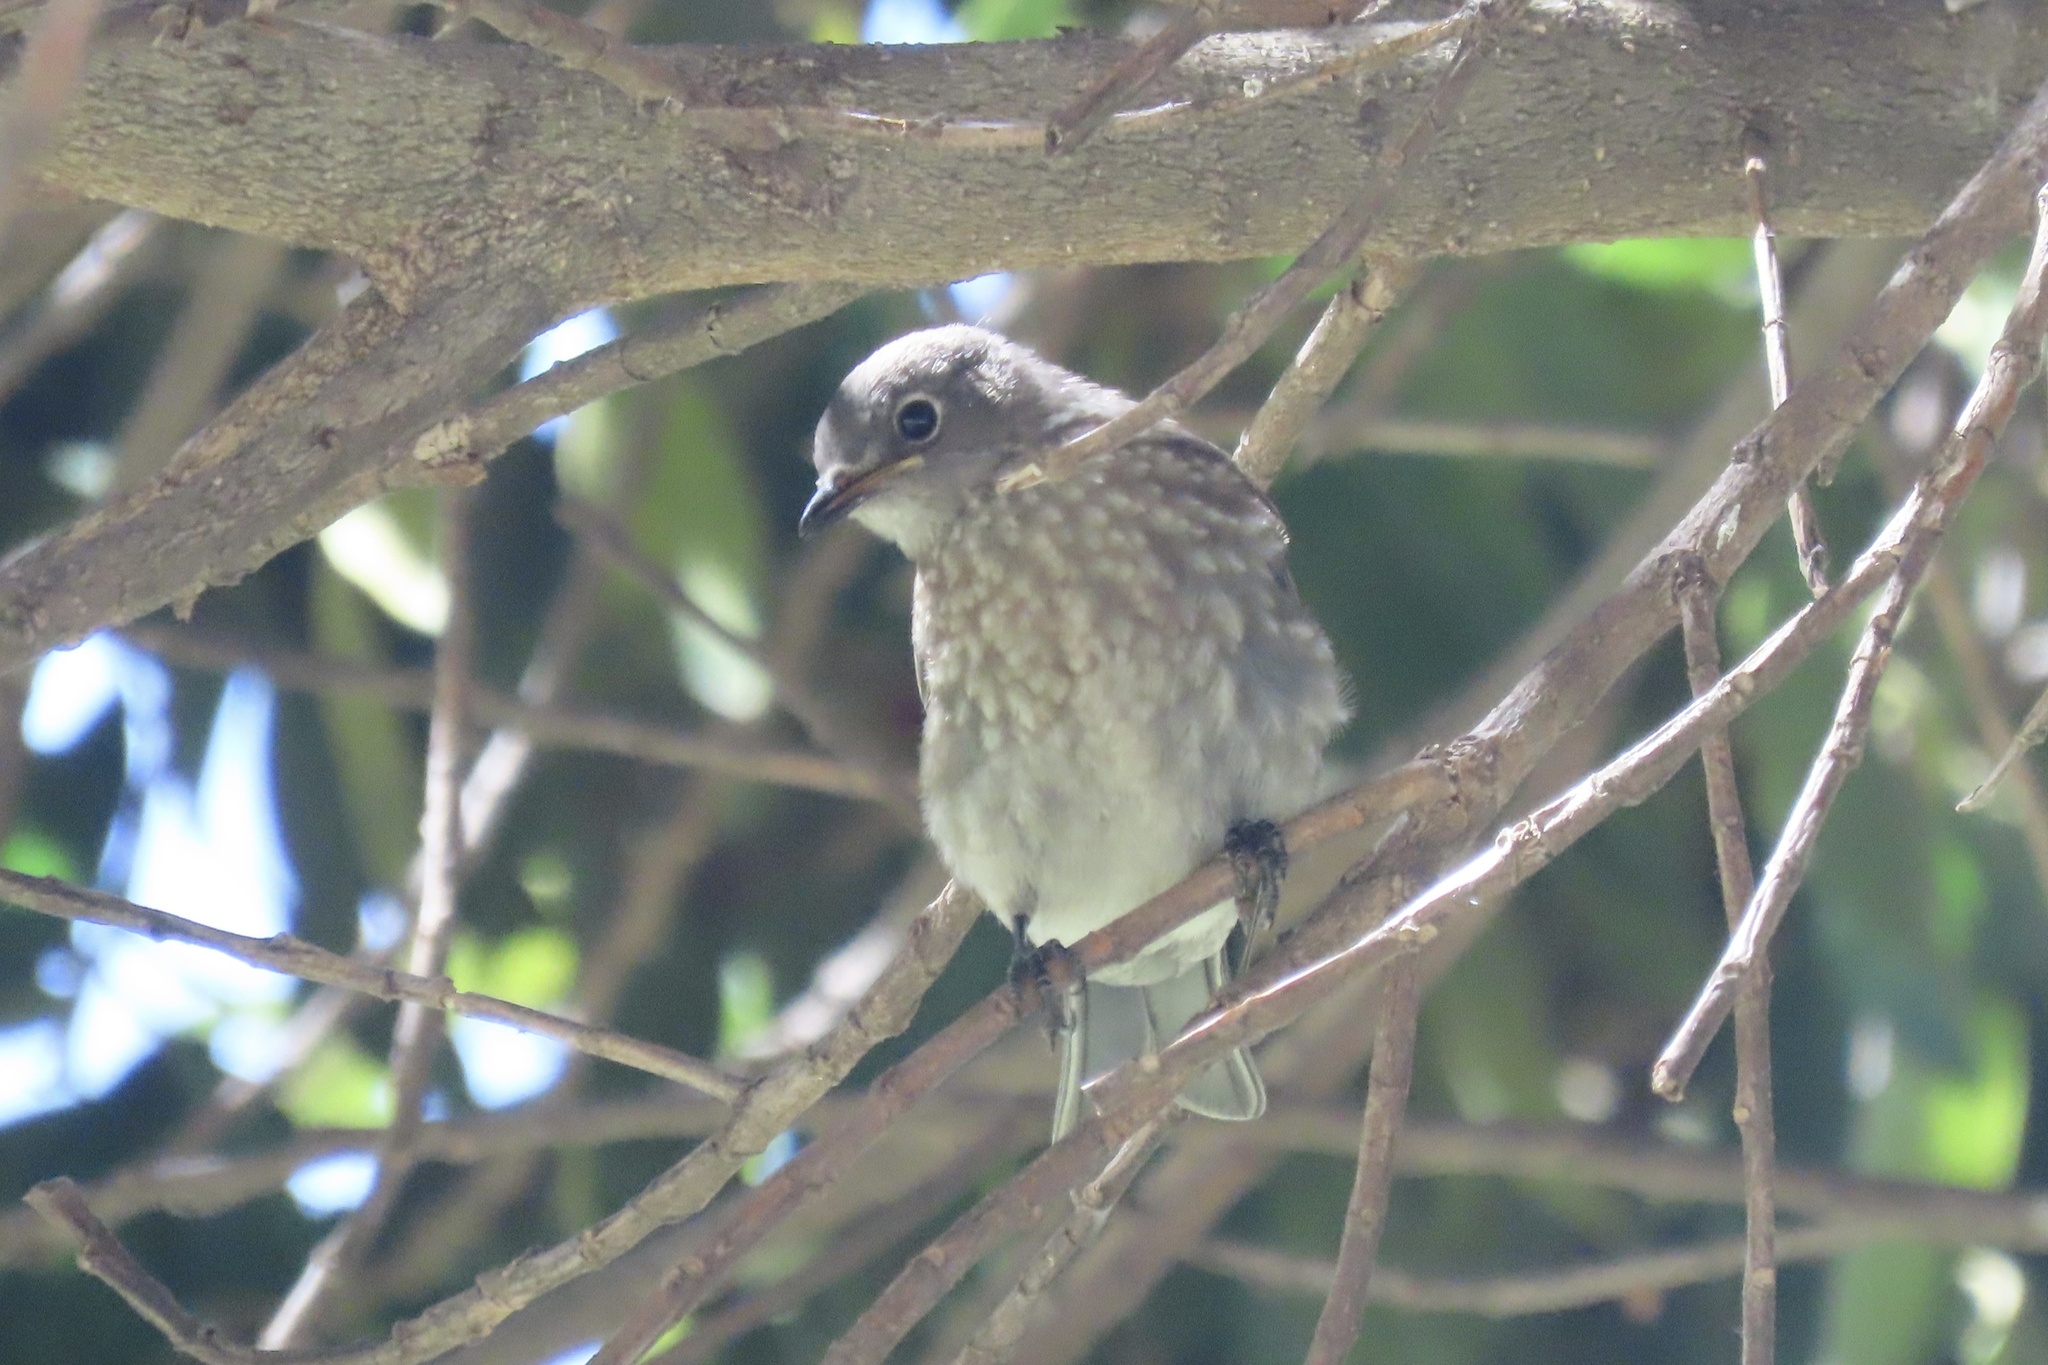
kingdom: Animalia
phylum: Chordata
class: Aves
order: Passeriformes
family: Turdidae
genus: Sialia
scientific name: Sialia mexicana
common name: Western bluebird
